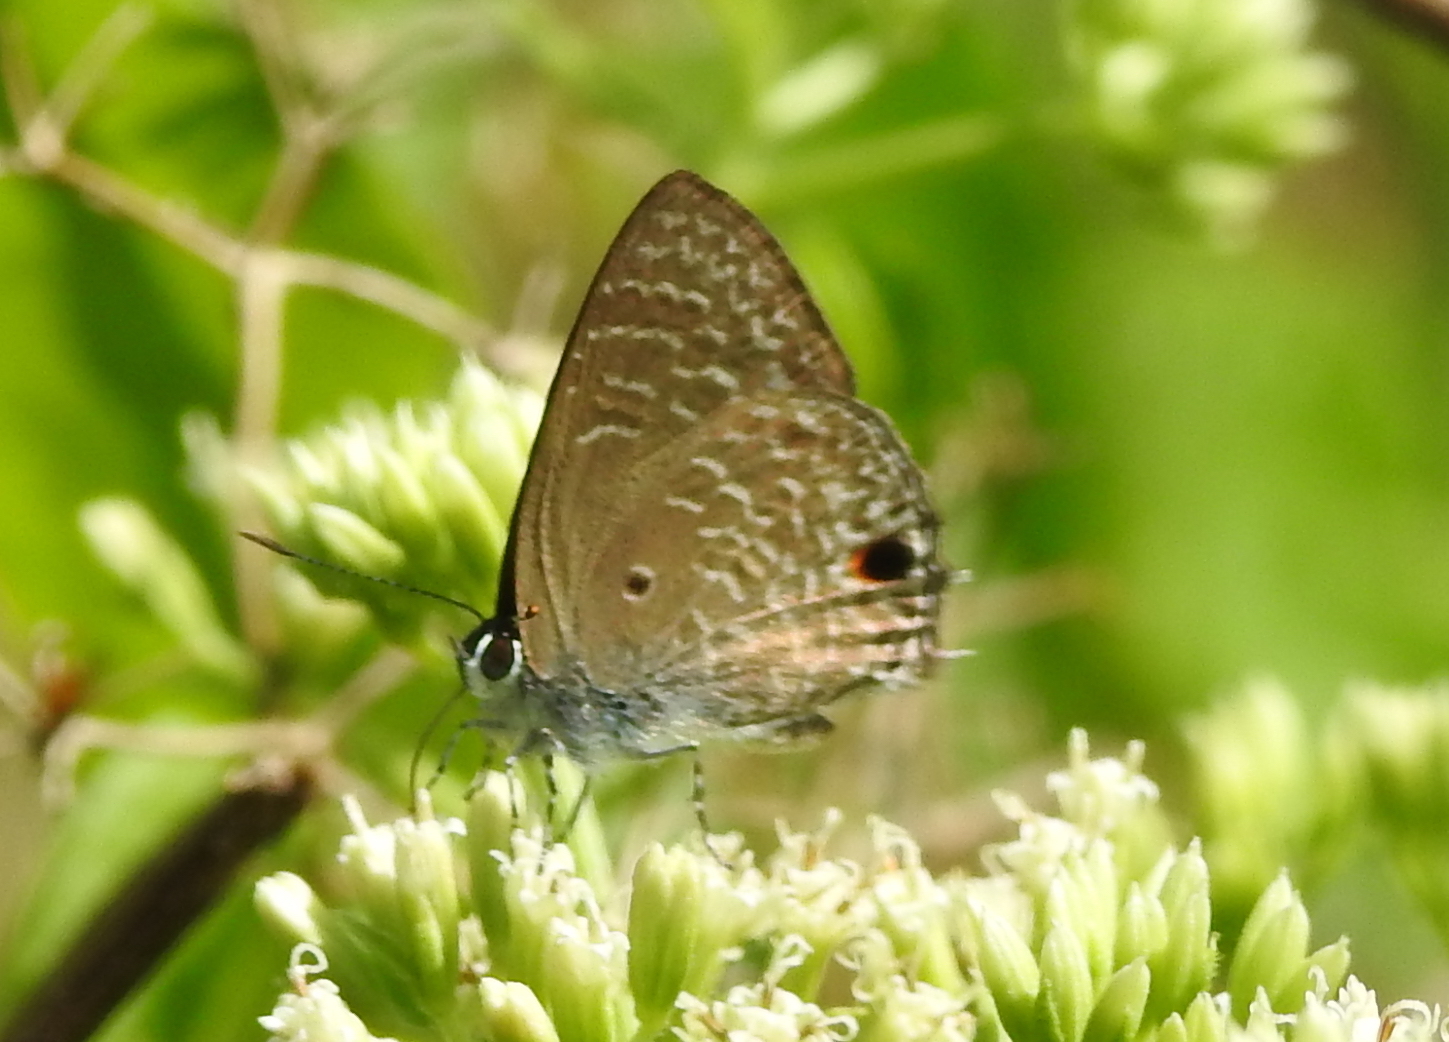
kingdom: Animalia
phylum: Arthropoda
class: Insecta
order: Lepidoptera
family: Lycaenidae
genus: Anthene
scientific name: Anthene lycaenina
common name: Pointed ciliate blue
